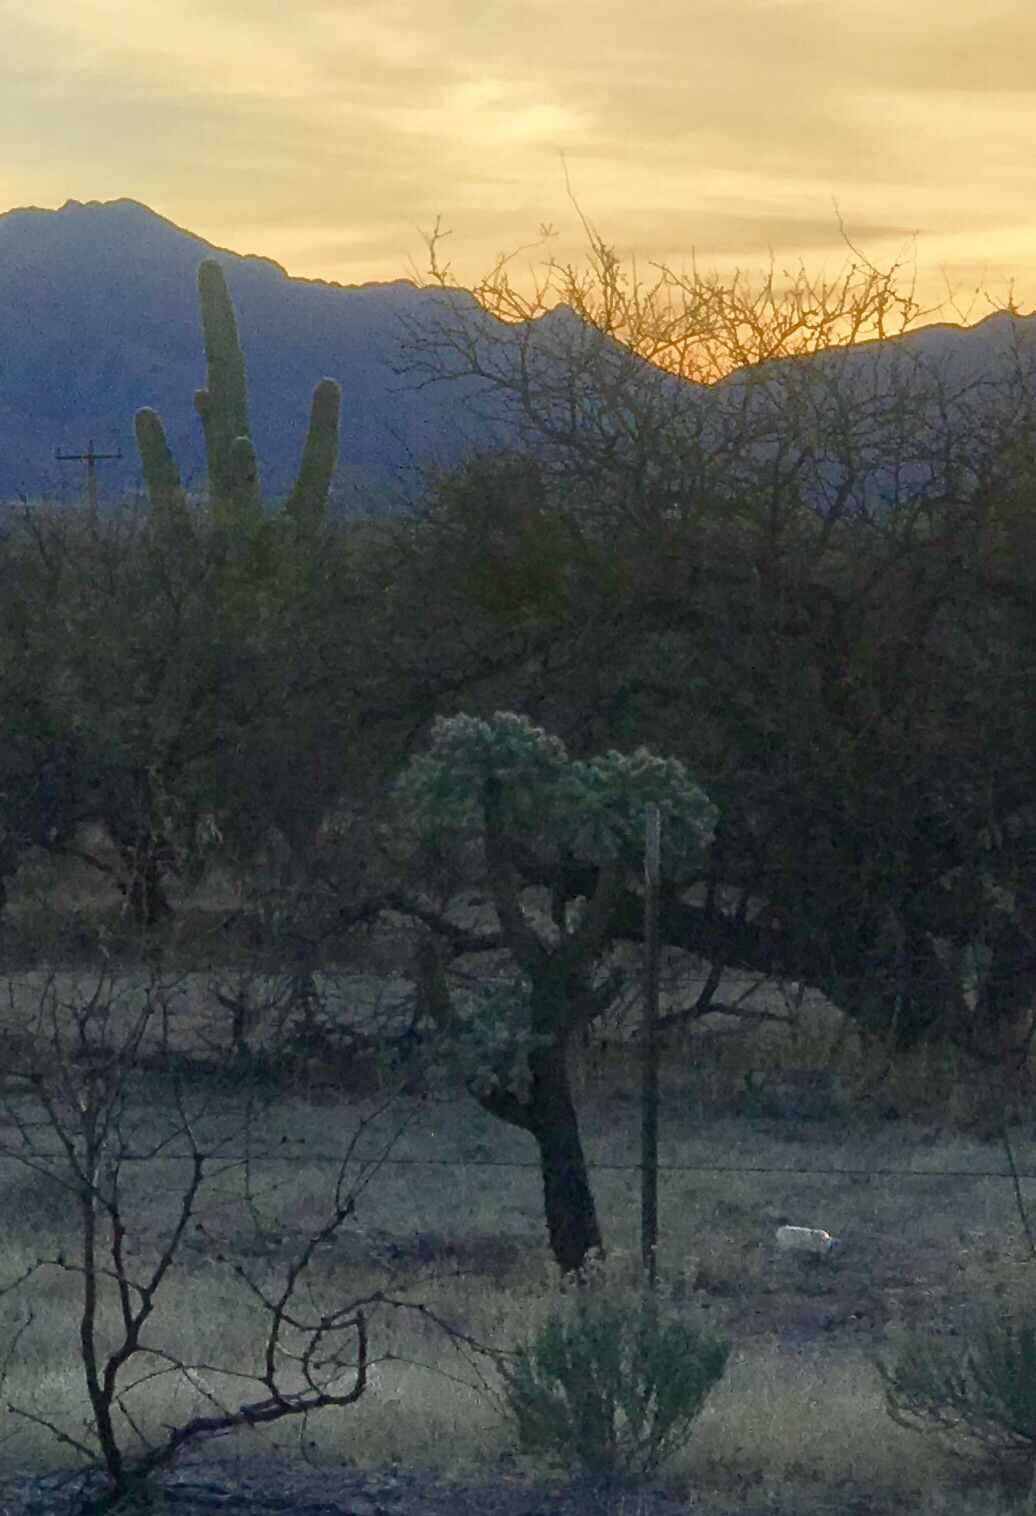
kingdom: Plantae
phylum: Tracheophyta
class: Magnoliopsida
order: Caryophyllales
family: Cactaceae
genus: Cylindropuntia
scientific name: Cylindropuntia fulgida
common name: Jumping cholla
